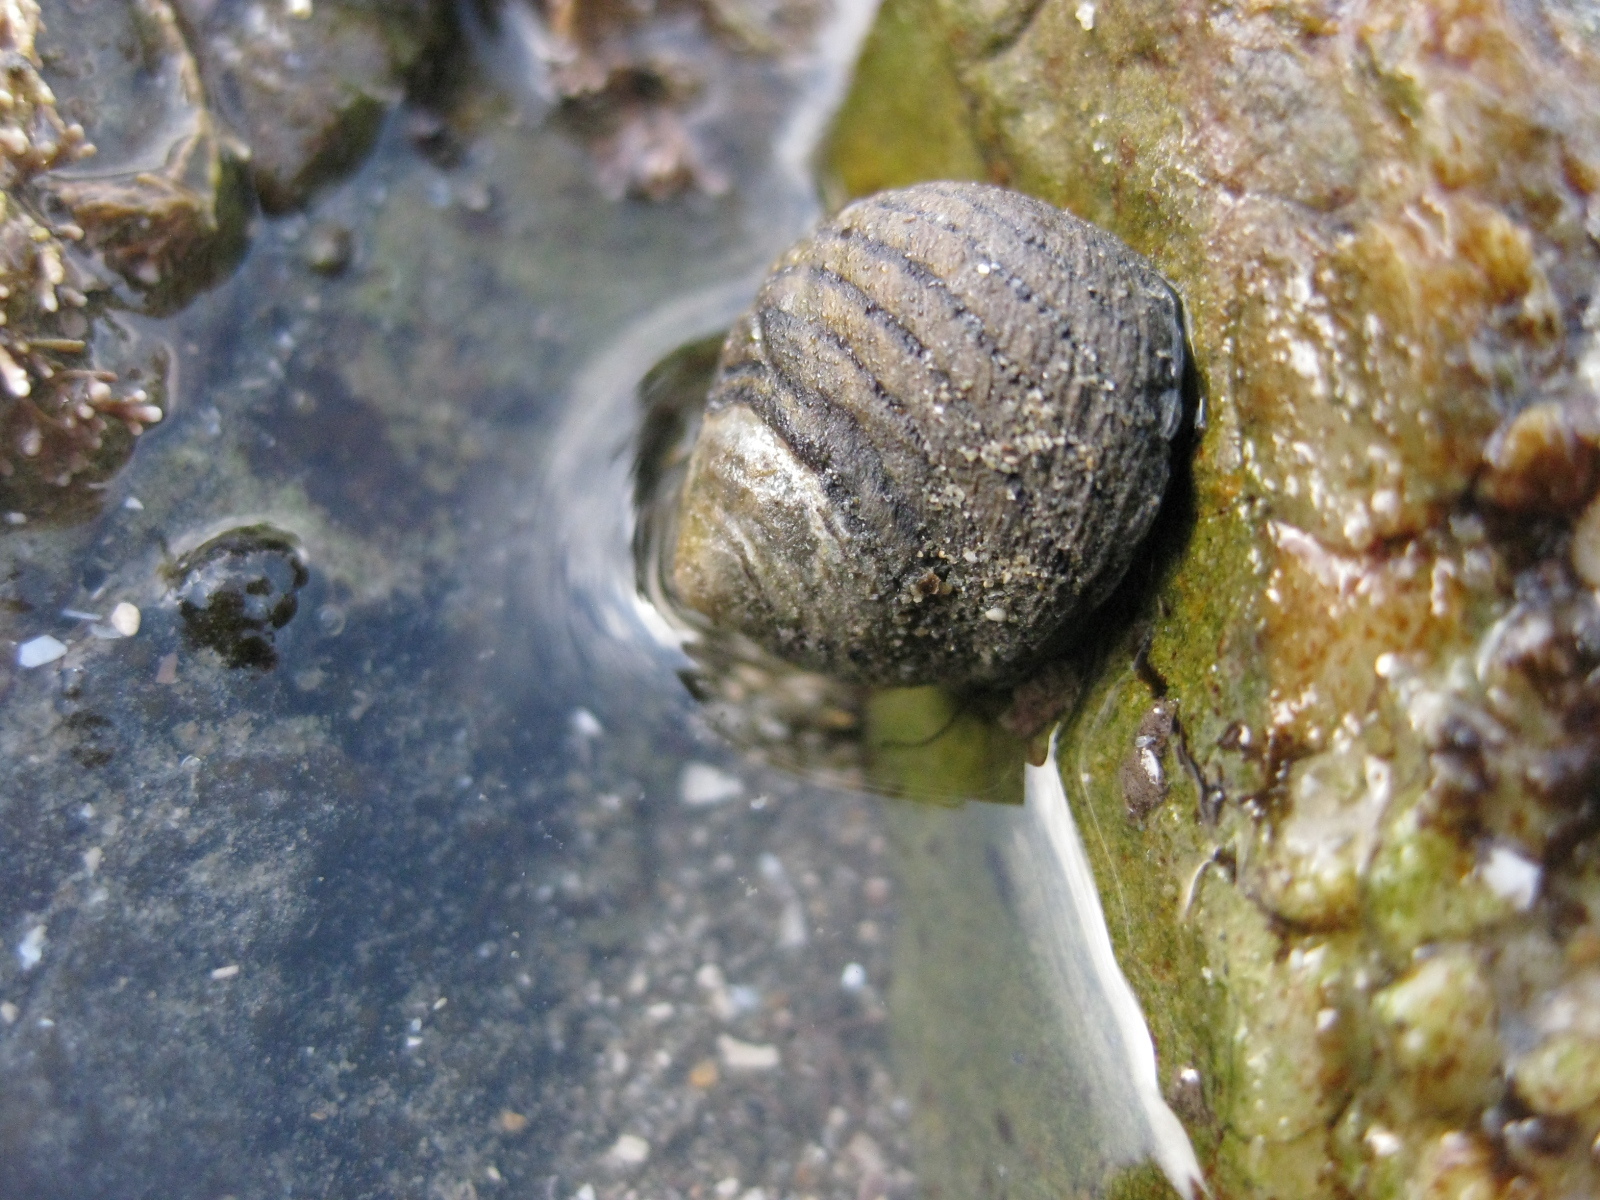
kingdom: Animalia
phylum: Mollusca
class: Gastropoda
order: Trochida
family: Trochidae
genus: Diloma
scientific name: Diloma aethiops
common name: Scorched monodont
